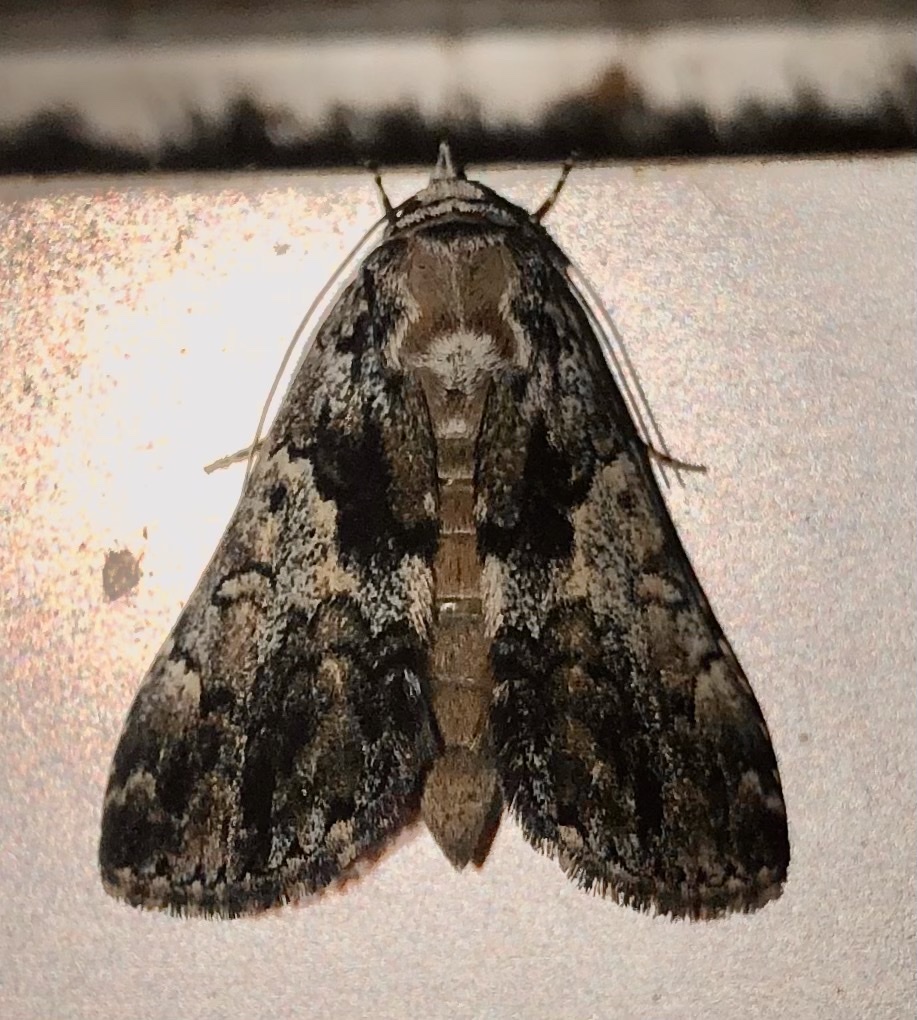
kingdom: Animalia
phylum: Arthropoda
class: Insecta
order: Lepidoptera
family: Erebidae
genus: Allotria
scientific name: Allotria elonympha
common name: False underwing
